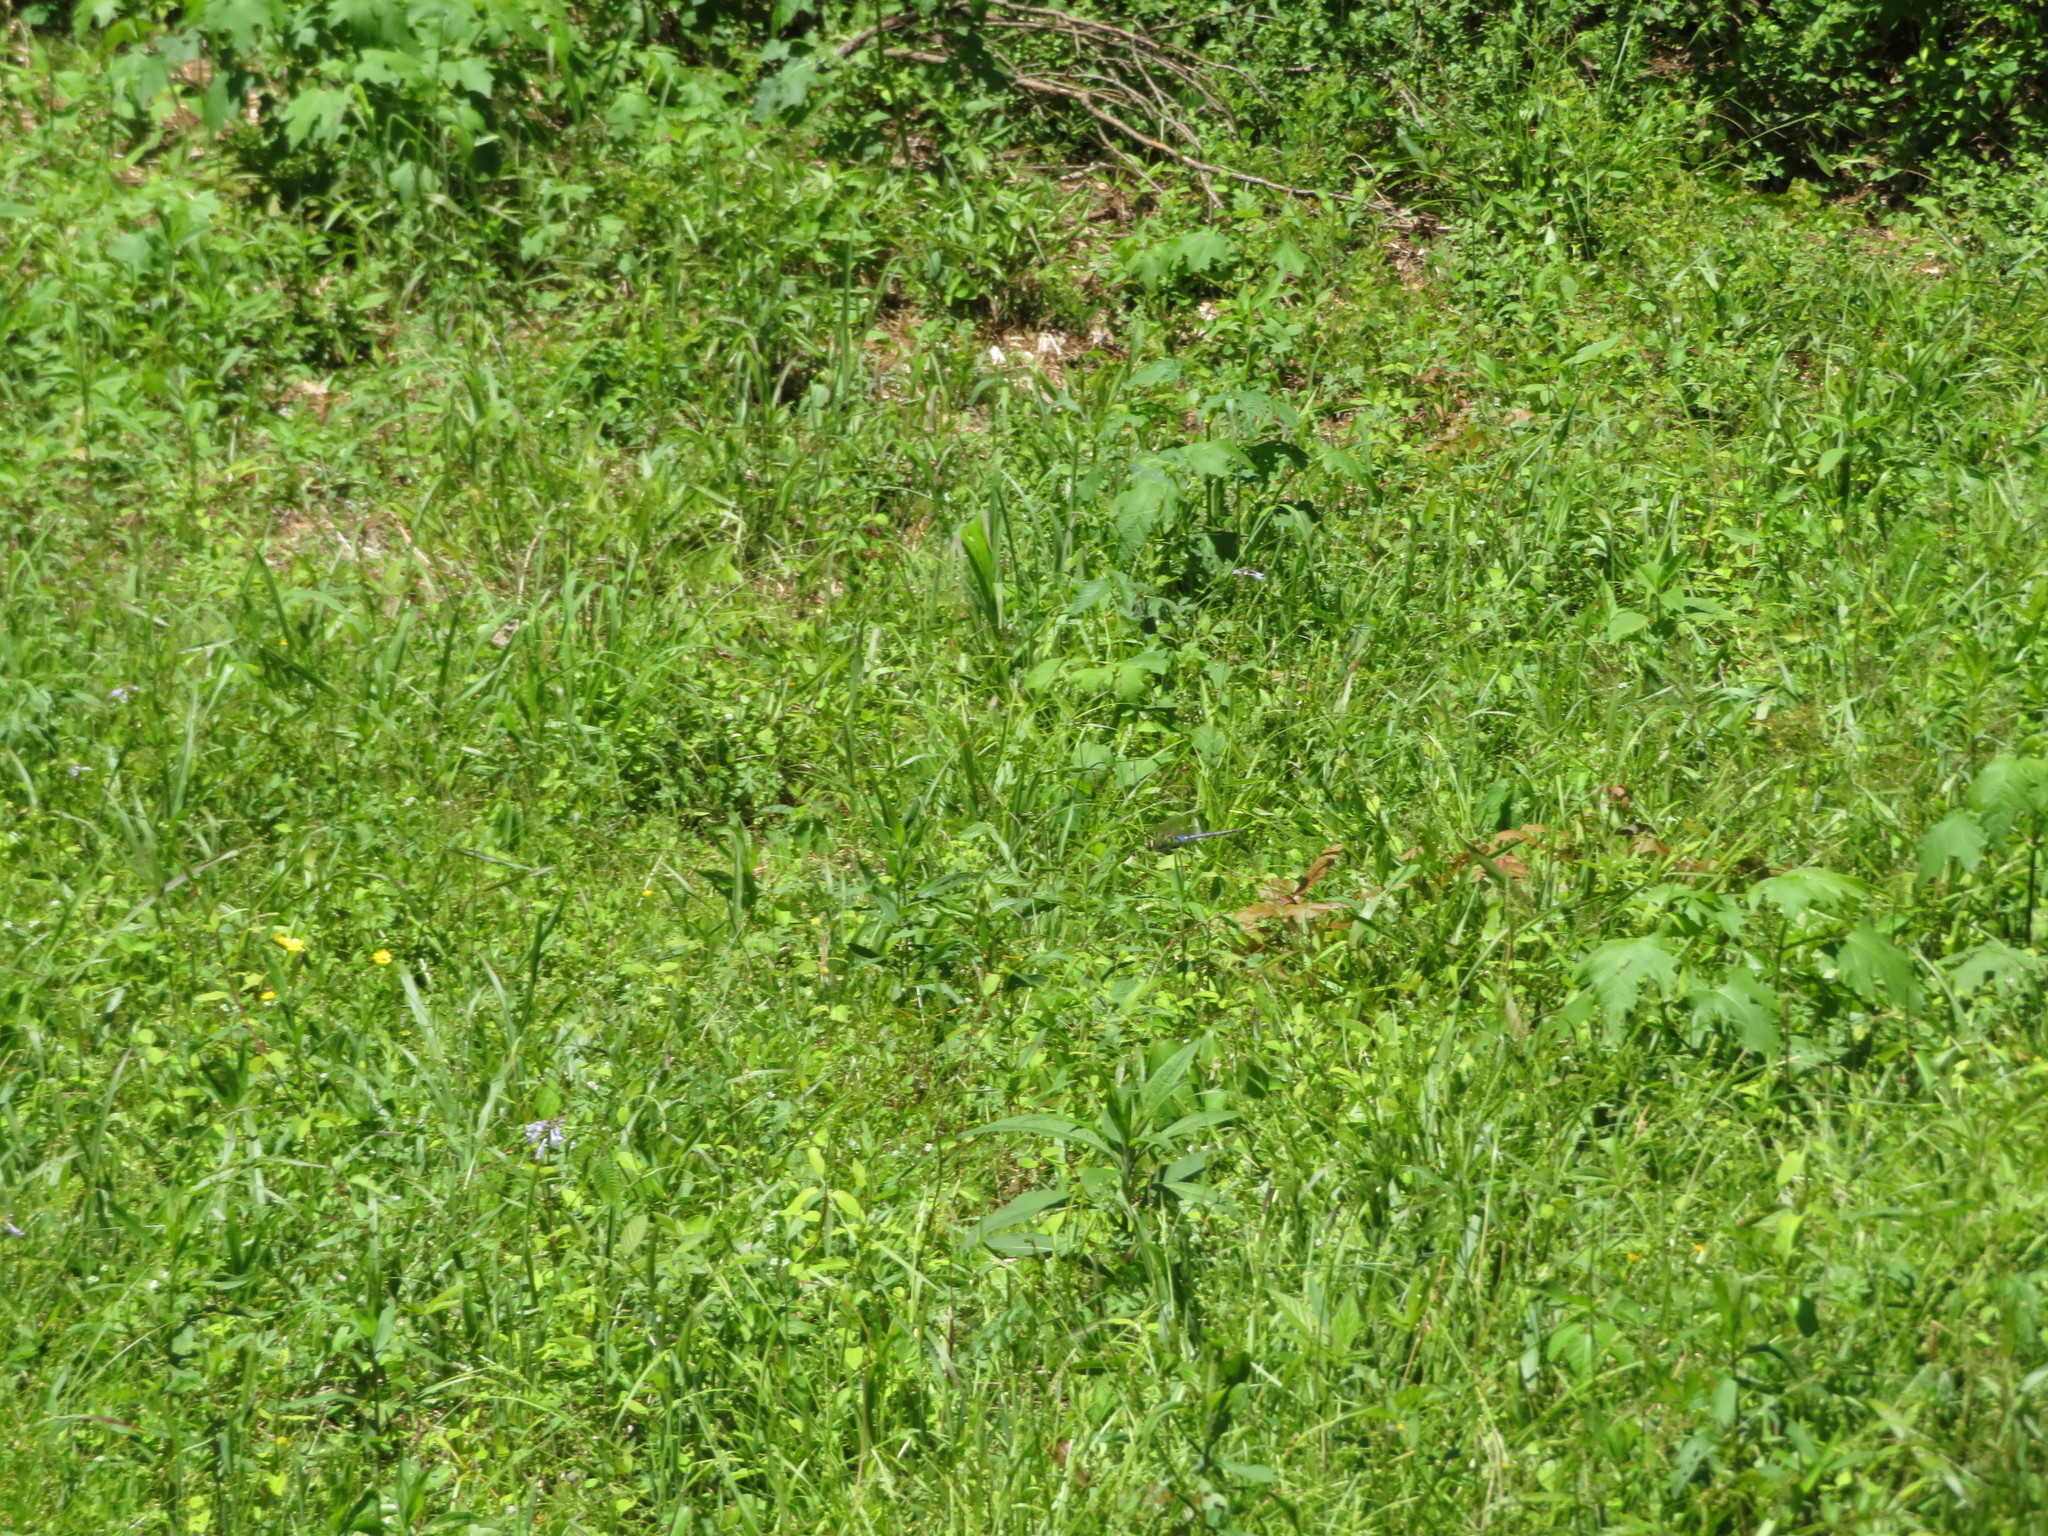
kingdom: Animalia
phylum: Arthropoda
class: Insecta
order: Odonata
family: Aeshnidae
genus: Anax
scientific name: Anax junius
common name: Common green darner
